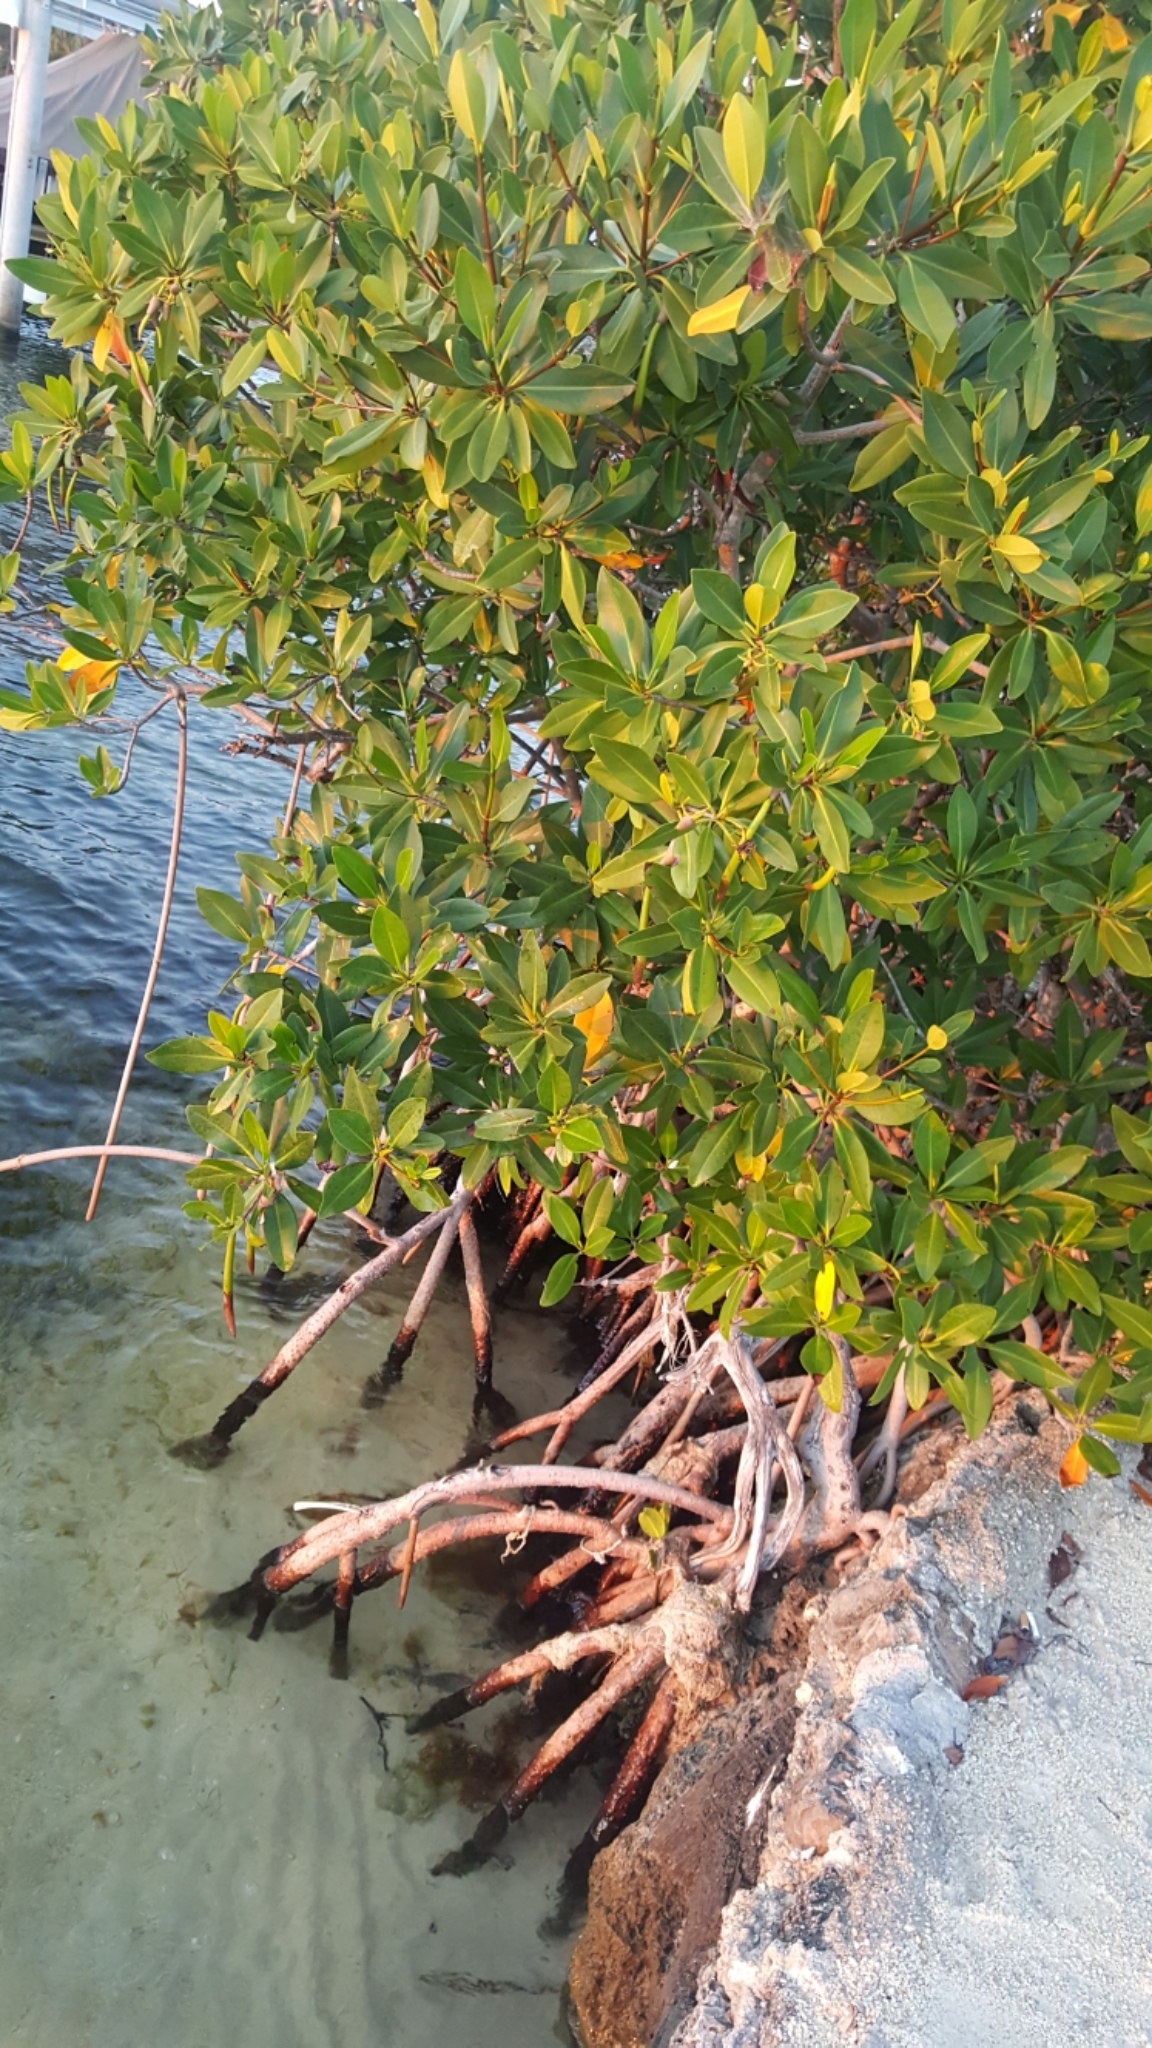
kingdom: Plantae
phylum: Tracheophyta
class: Magnoliopsida
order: Malpighiales
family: Rhizophoraceae
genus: Rhizophora
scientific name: Rhizophora mangle
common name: Red mangrove
